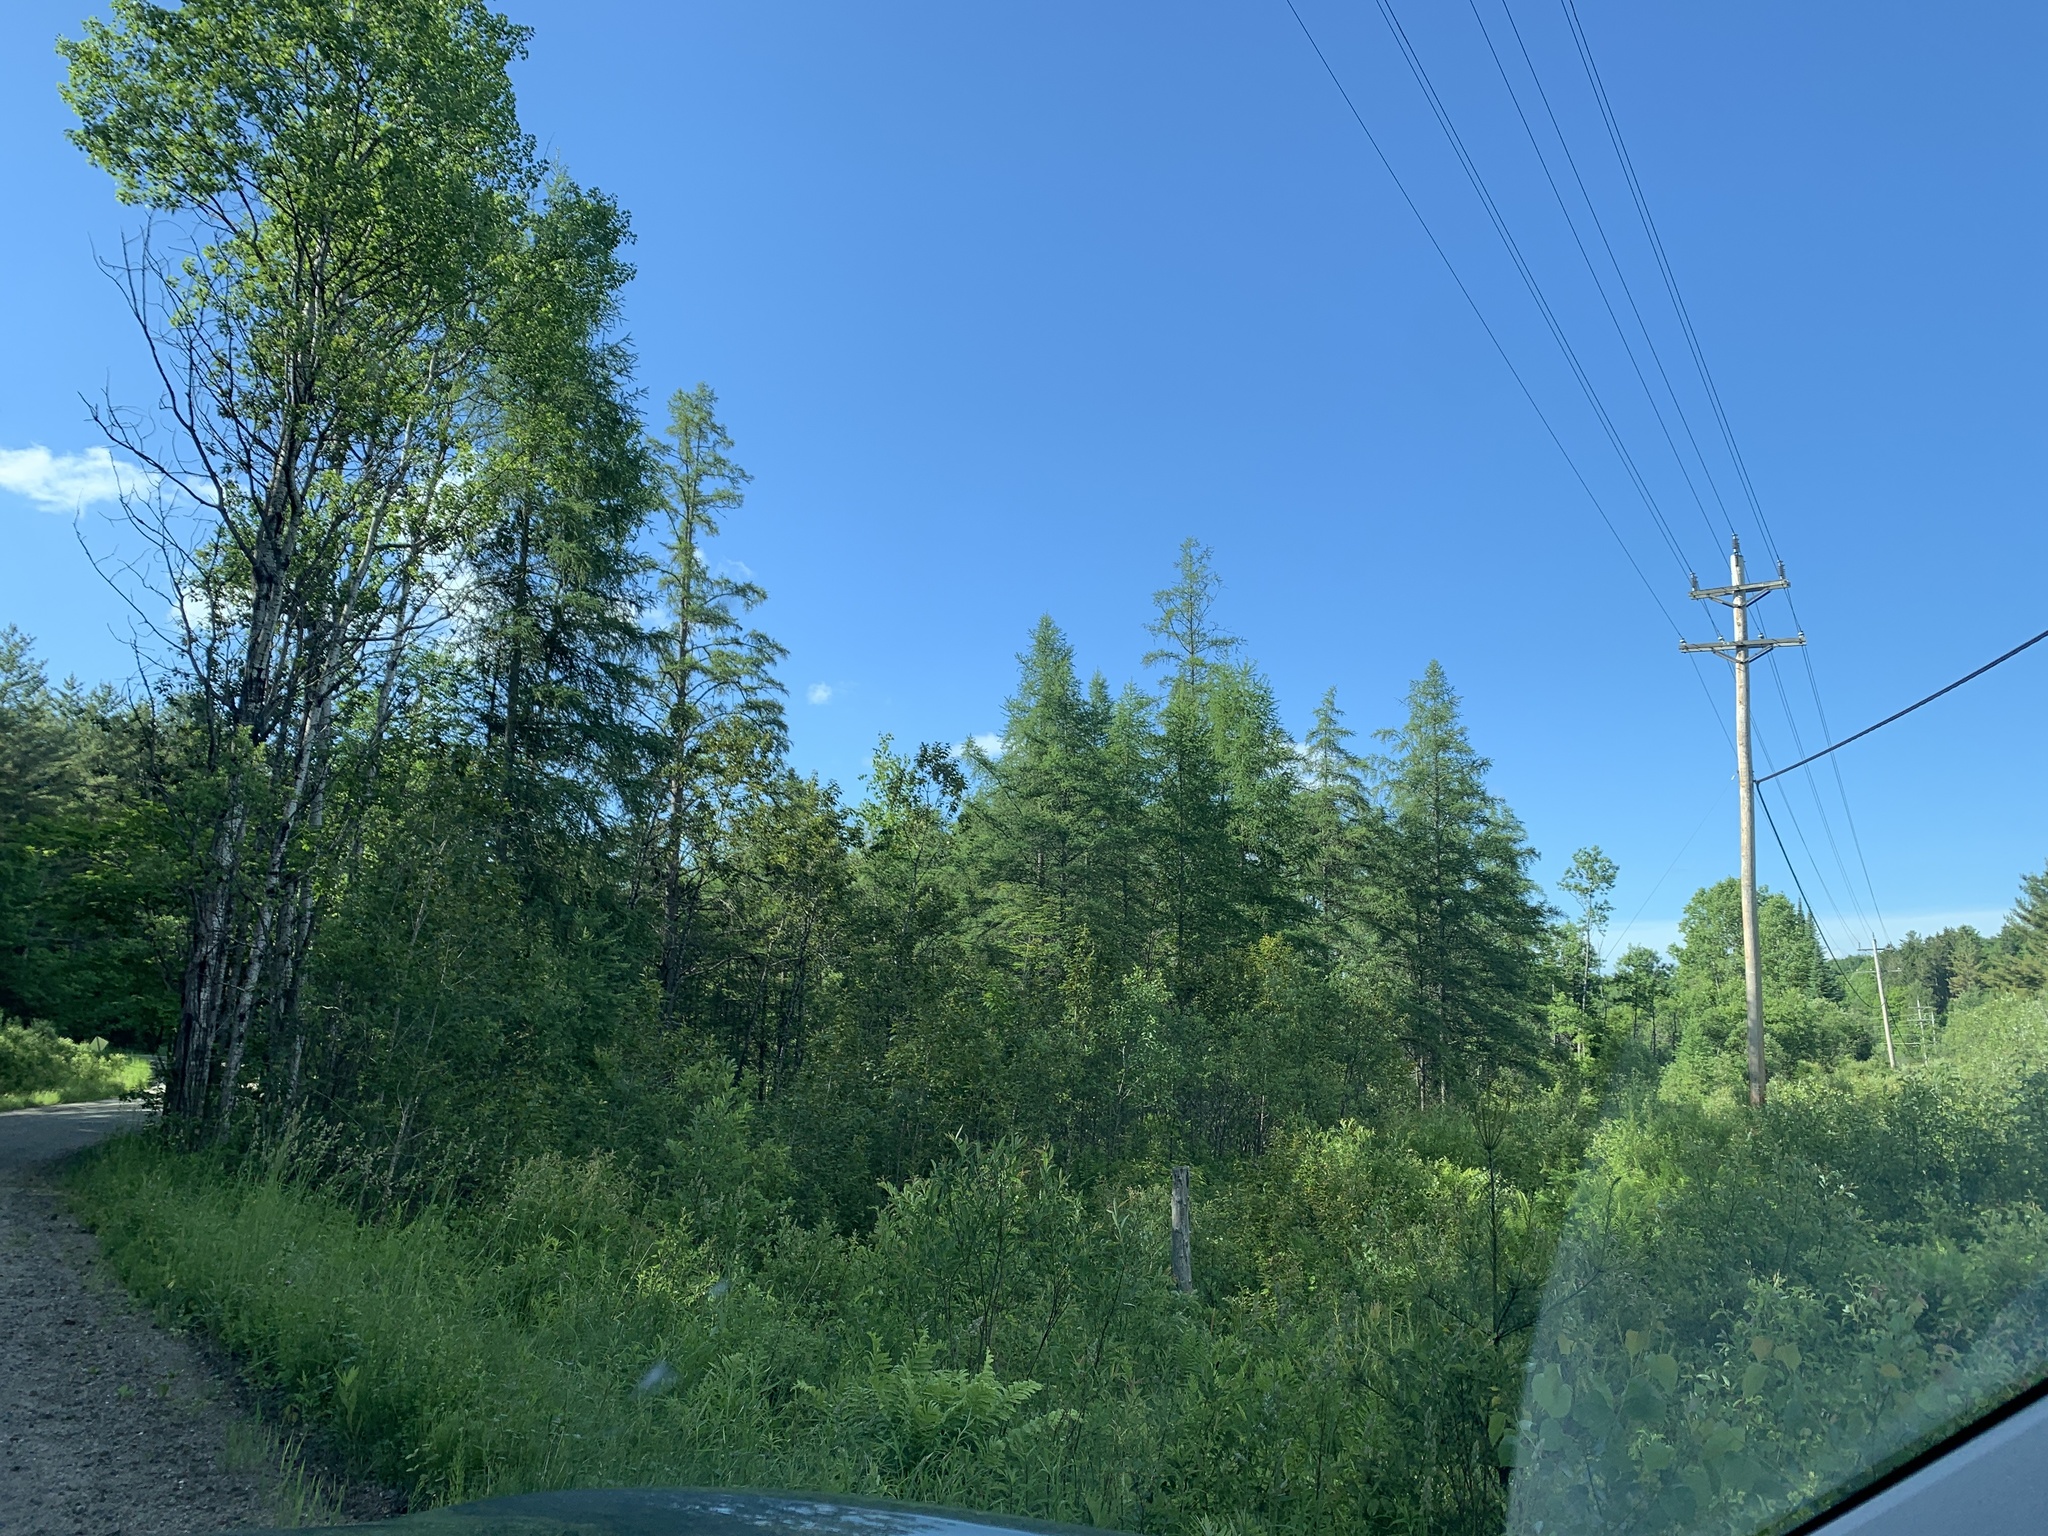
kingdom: Plantae
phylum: Tracheophyta
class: Pinopsida
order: Pinales
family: Pinaceae
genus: Larix
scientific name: Larix laricina
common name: American larch
